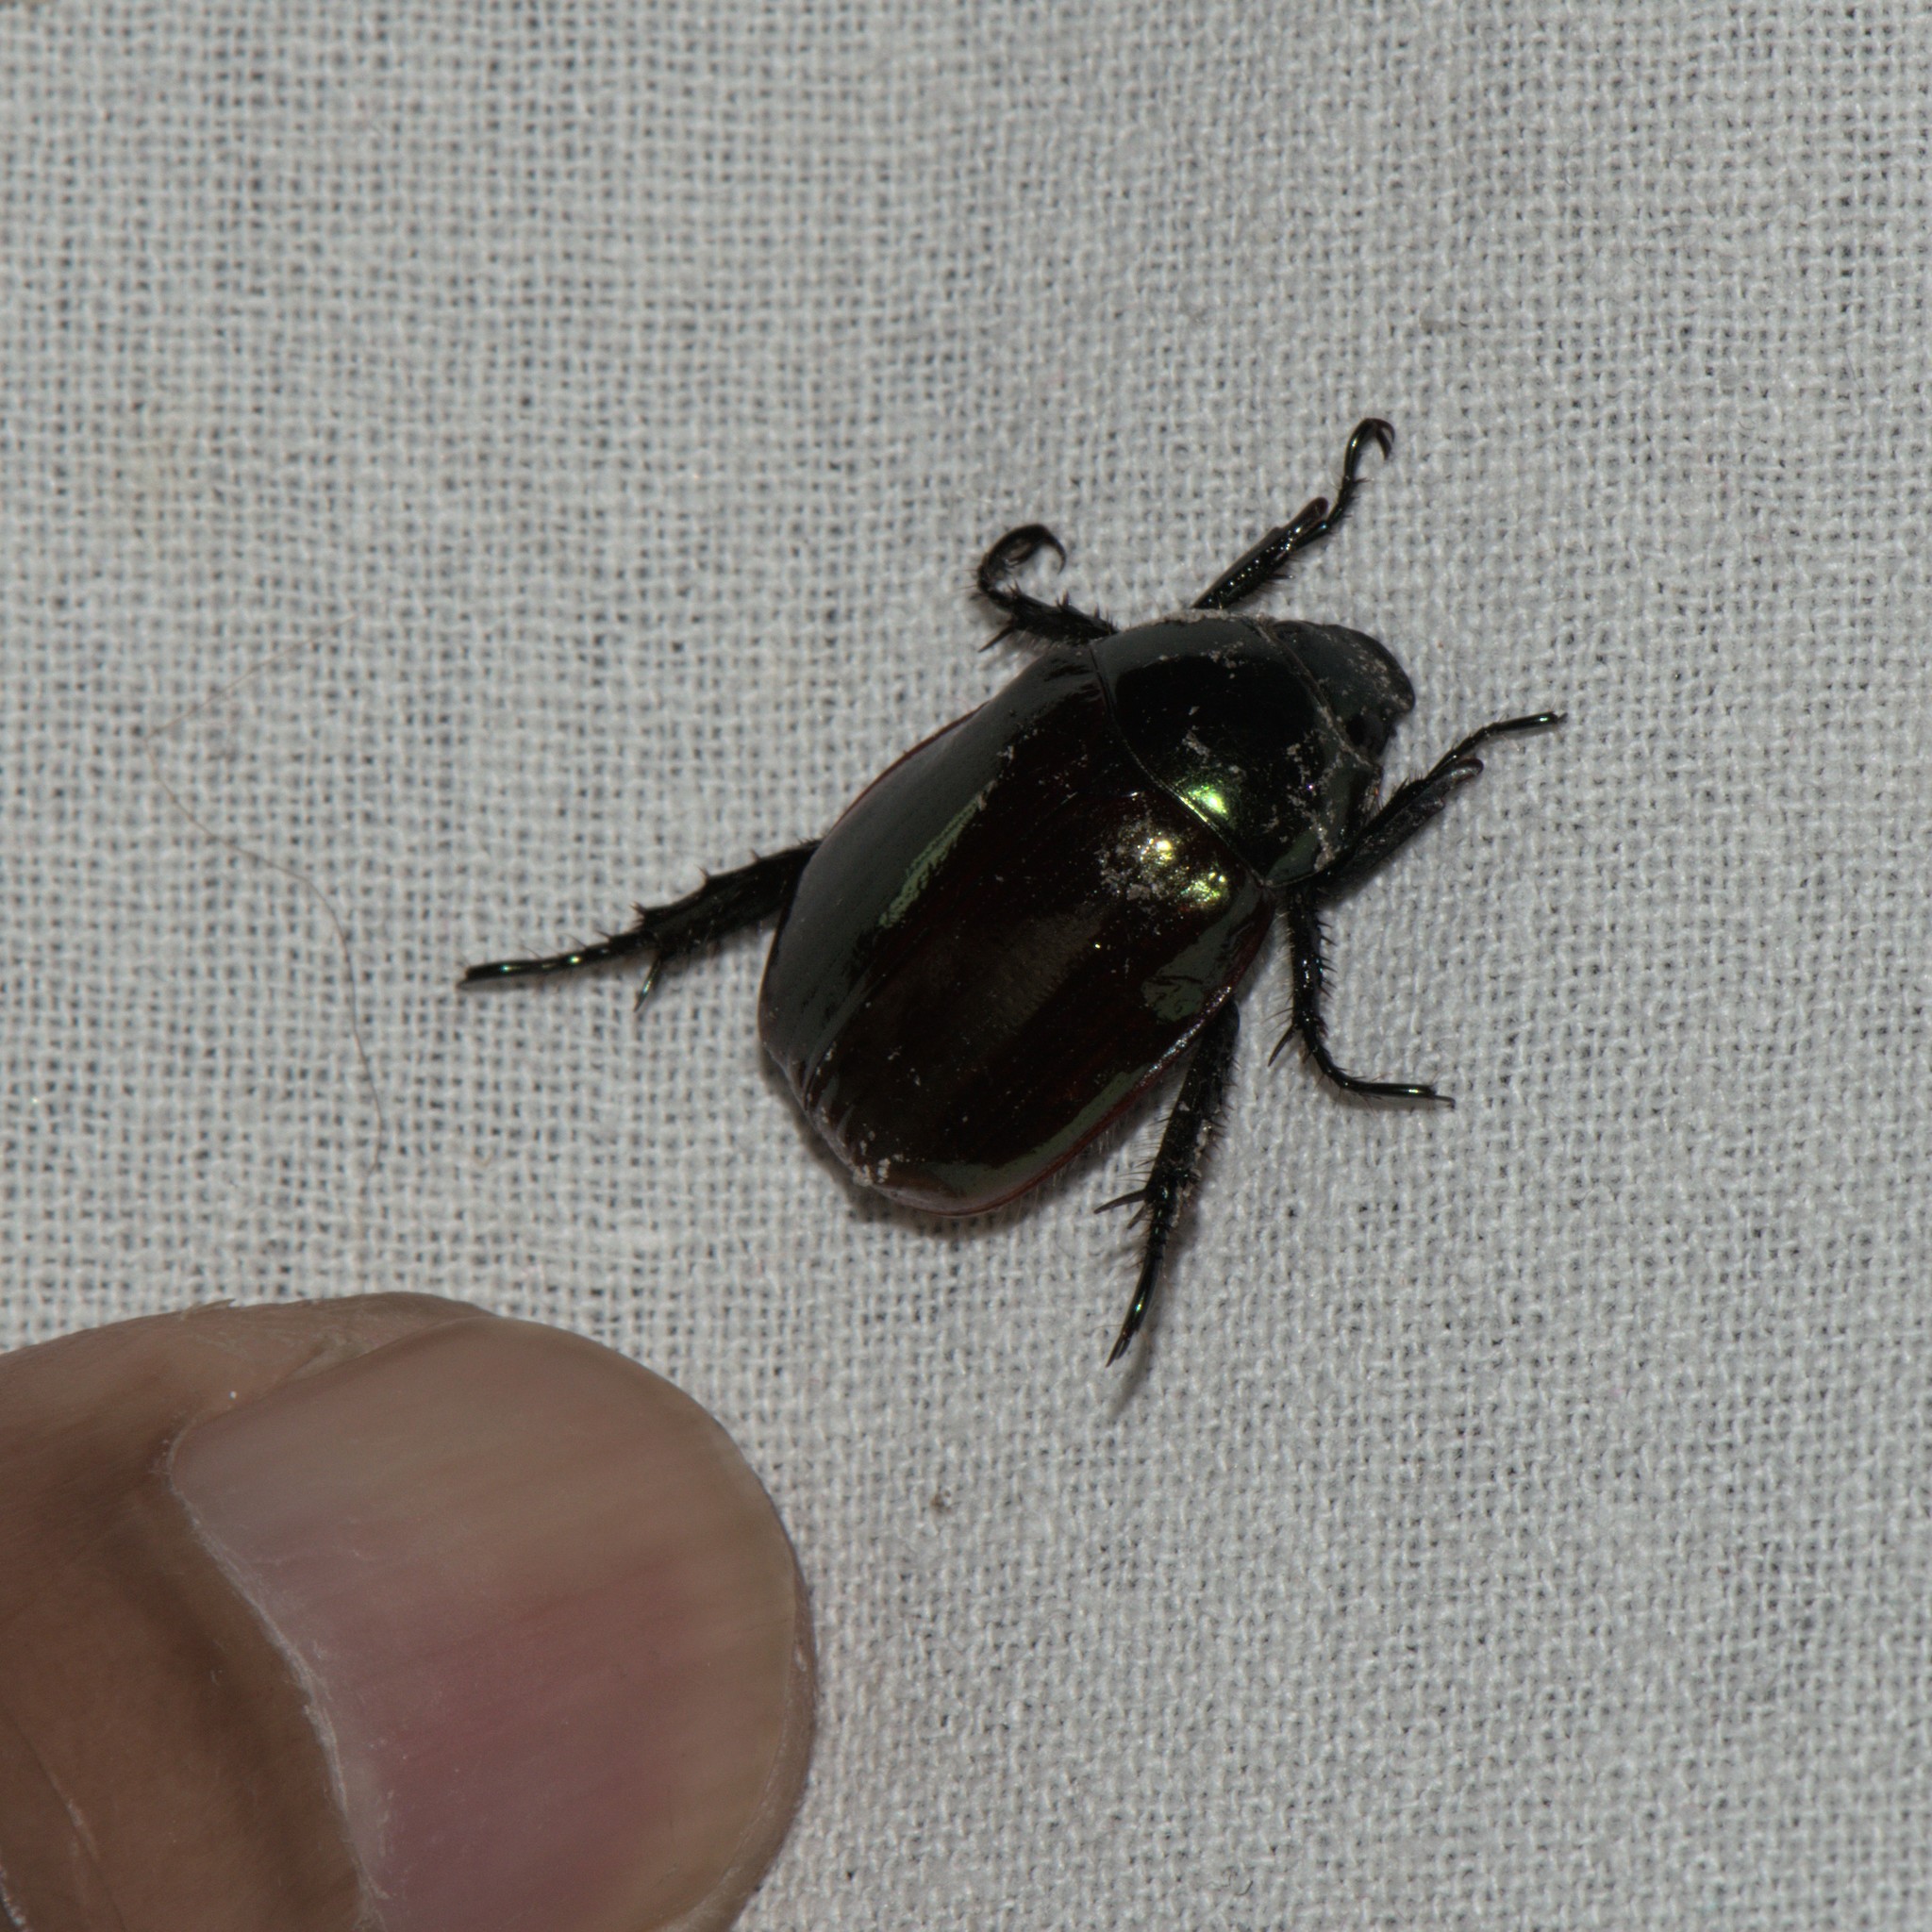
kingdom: Animalia
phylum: Arthropoda
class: Insecta
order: Coleoptera
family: Scarabaeidae
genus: Anomala
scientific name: Anomala rufiventris
